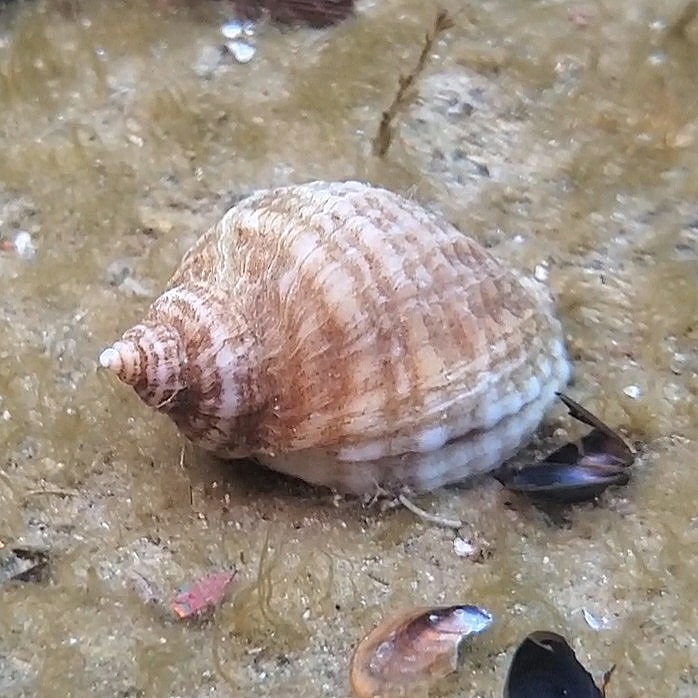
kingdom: Animalia
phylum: Mollusca
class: Gastropoda
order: Neogastropoda
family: Muricidae
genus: Nucella
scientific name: Nucella lapillus
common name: Dog whelk
